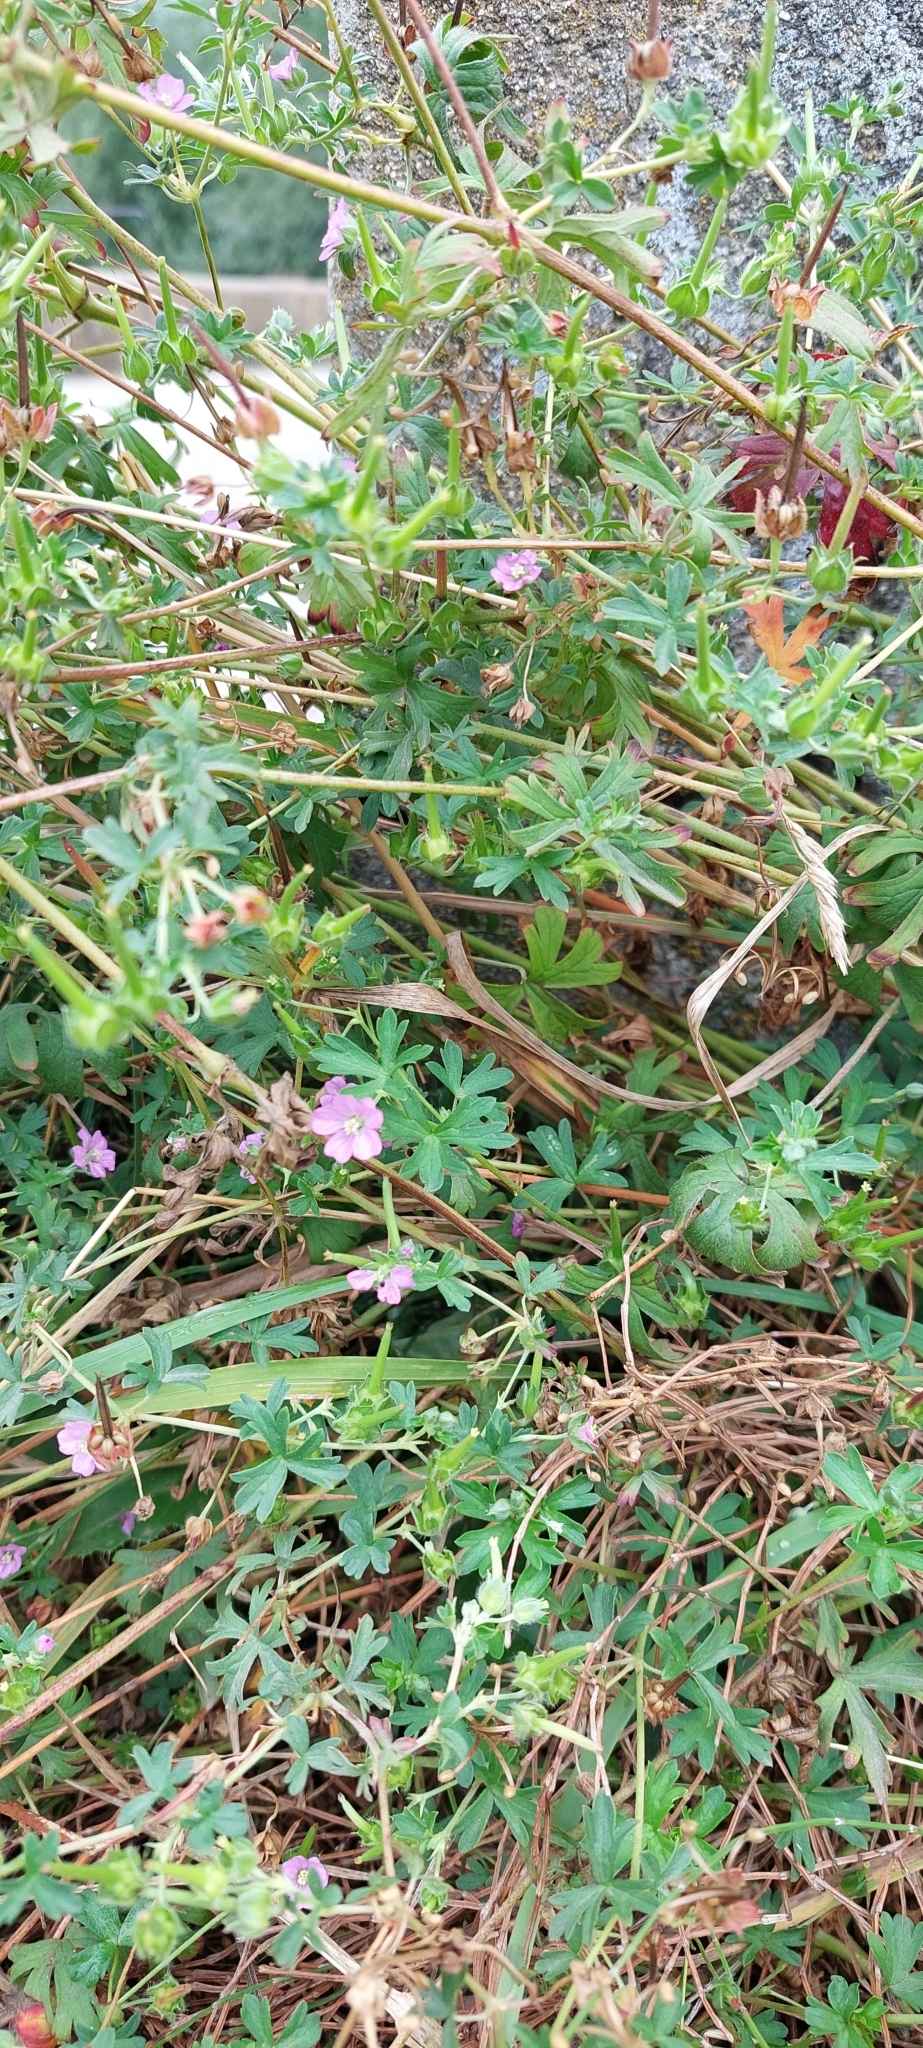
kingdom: Plantae
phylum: Tracheophyta
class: Magnoliopsida
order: Geraniales
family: Geraniaceae
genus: Geranium
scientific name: Geranium sessiliflorum
